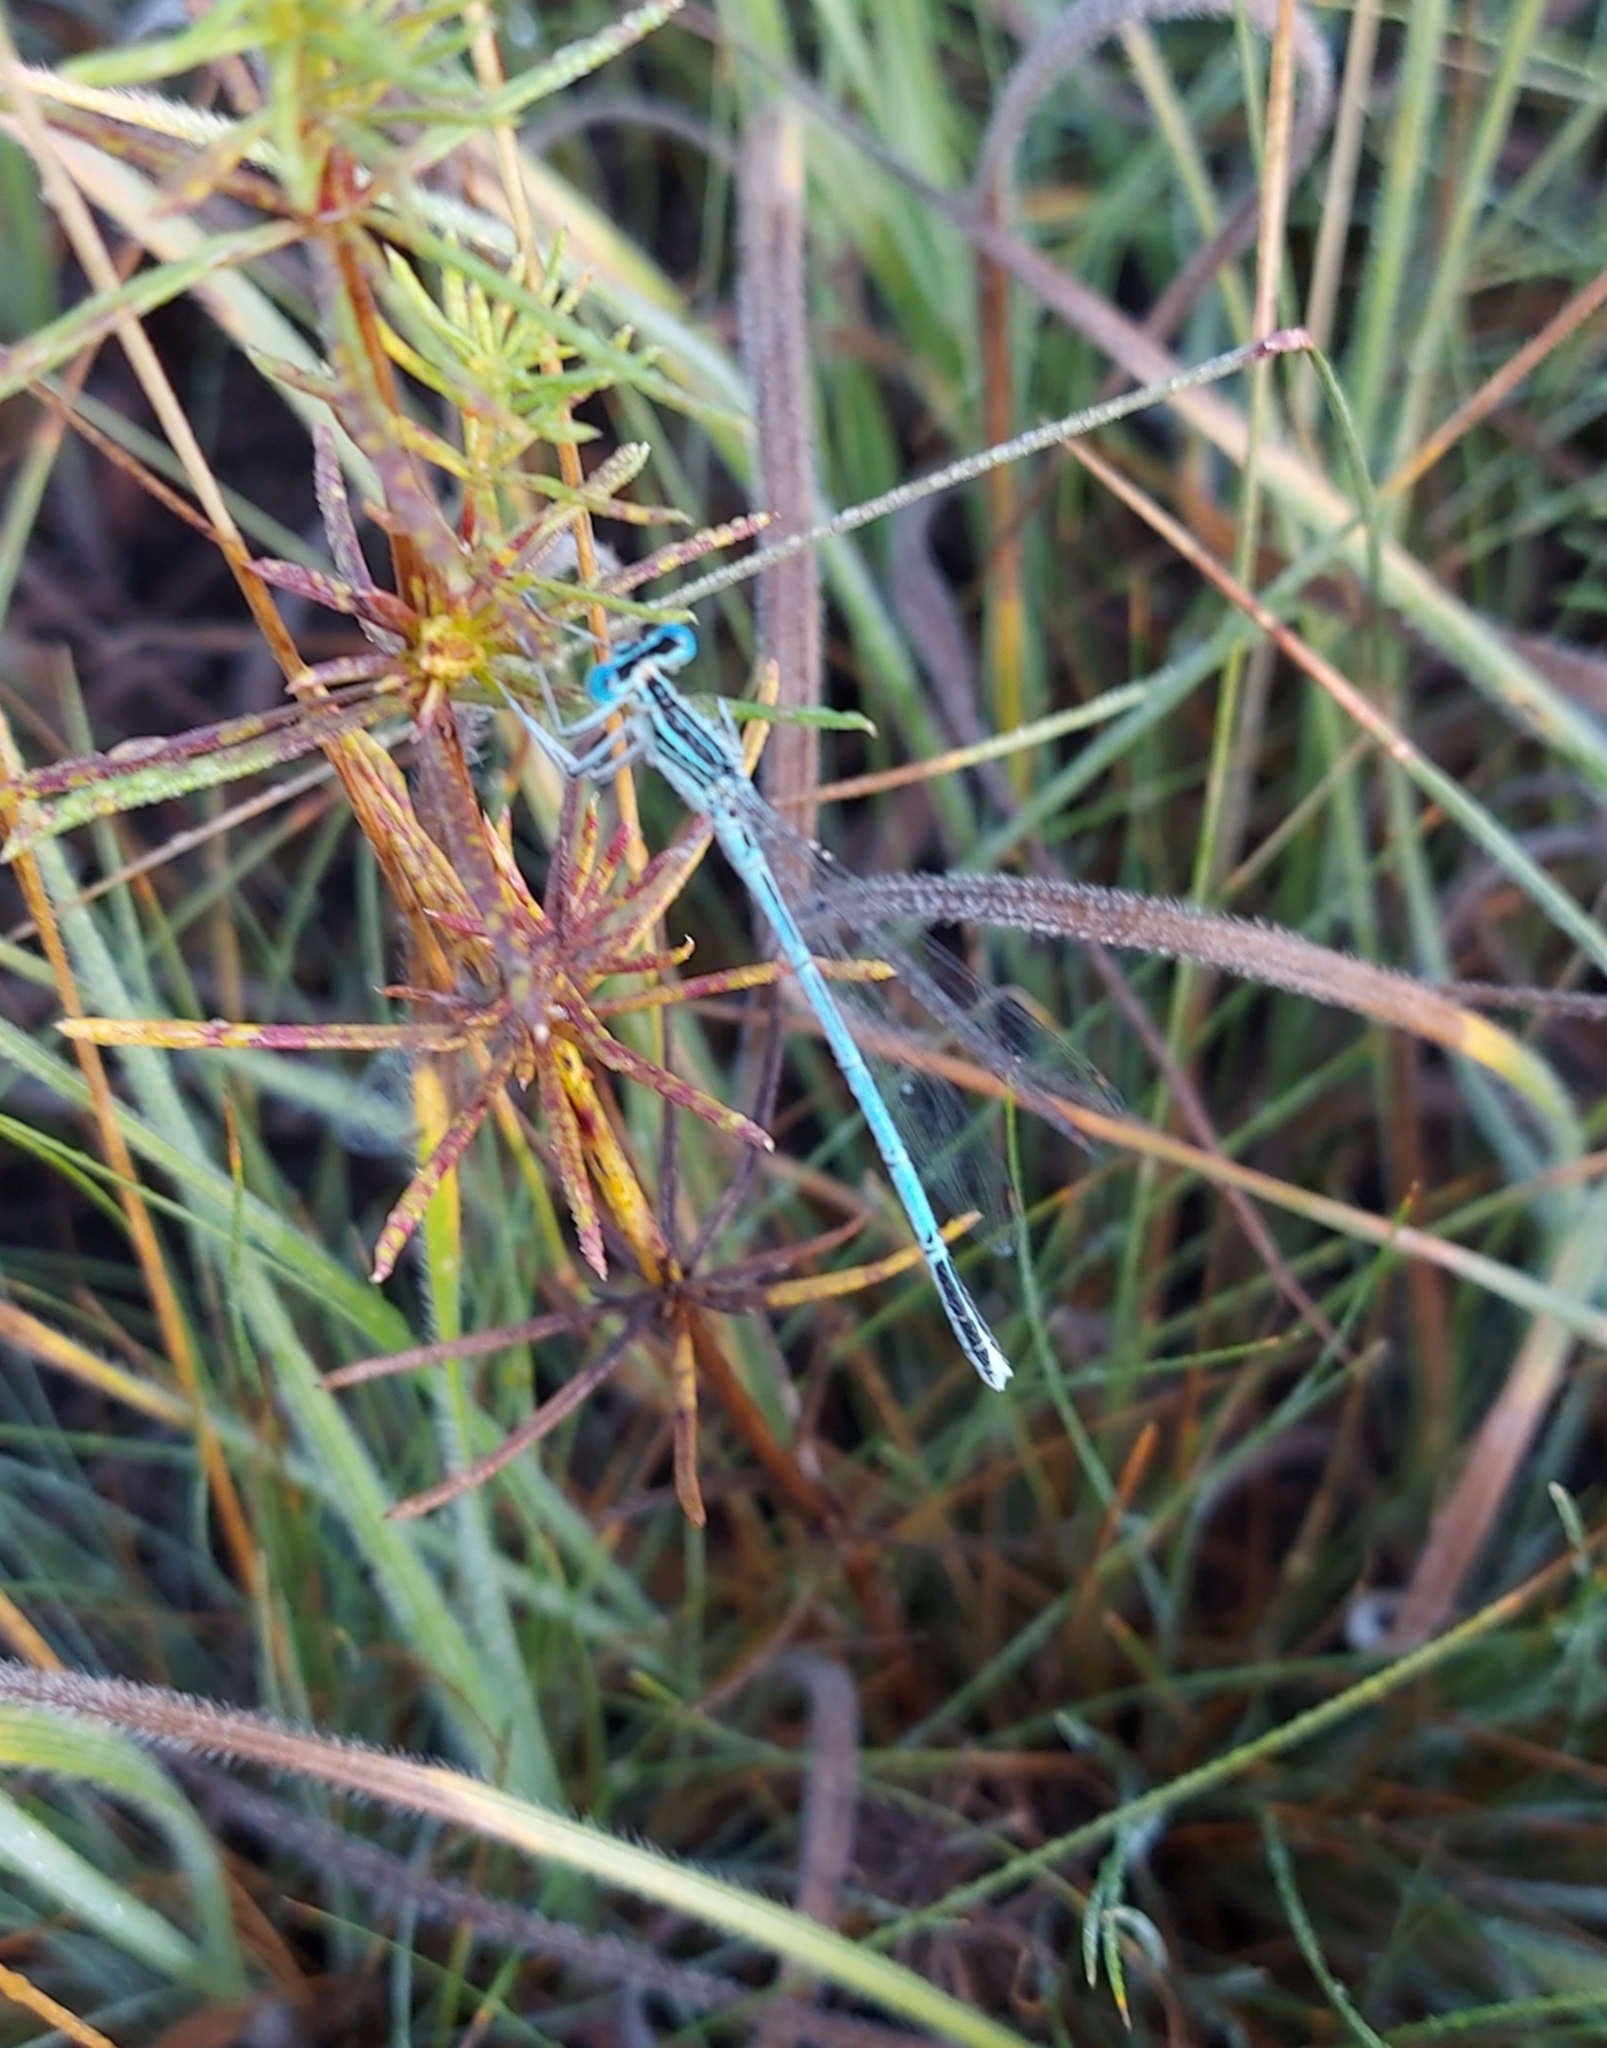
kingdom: Animalia
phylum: Arthropoda
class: Insecta
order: Odonata
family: Platycnemididae
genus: Platycnemis
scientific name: Platycnemis pennipes
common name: White-legged damselfly
